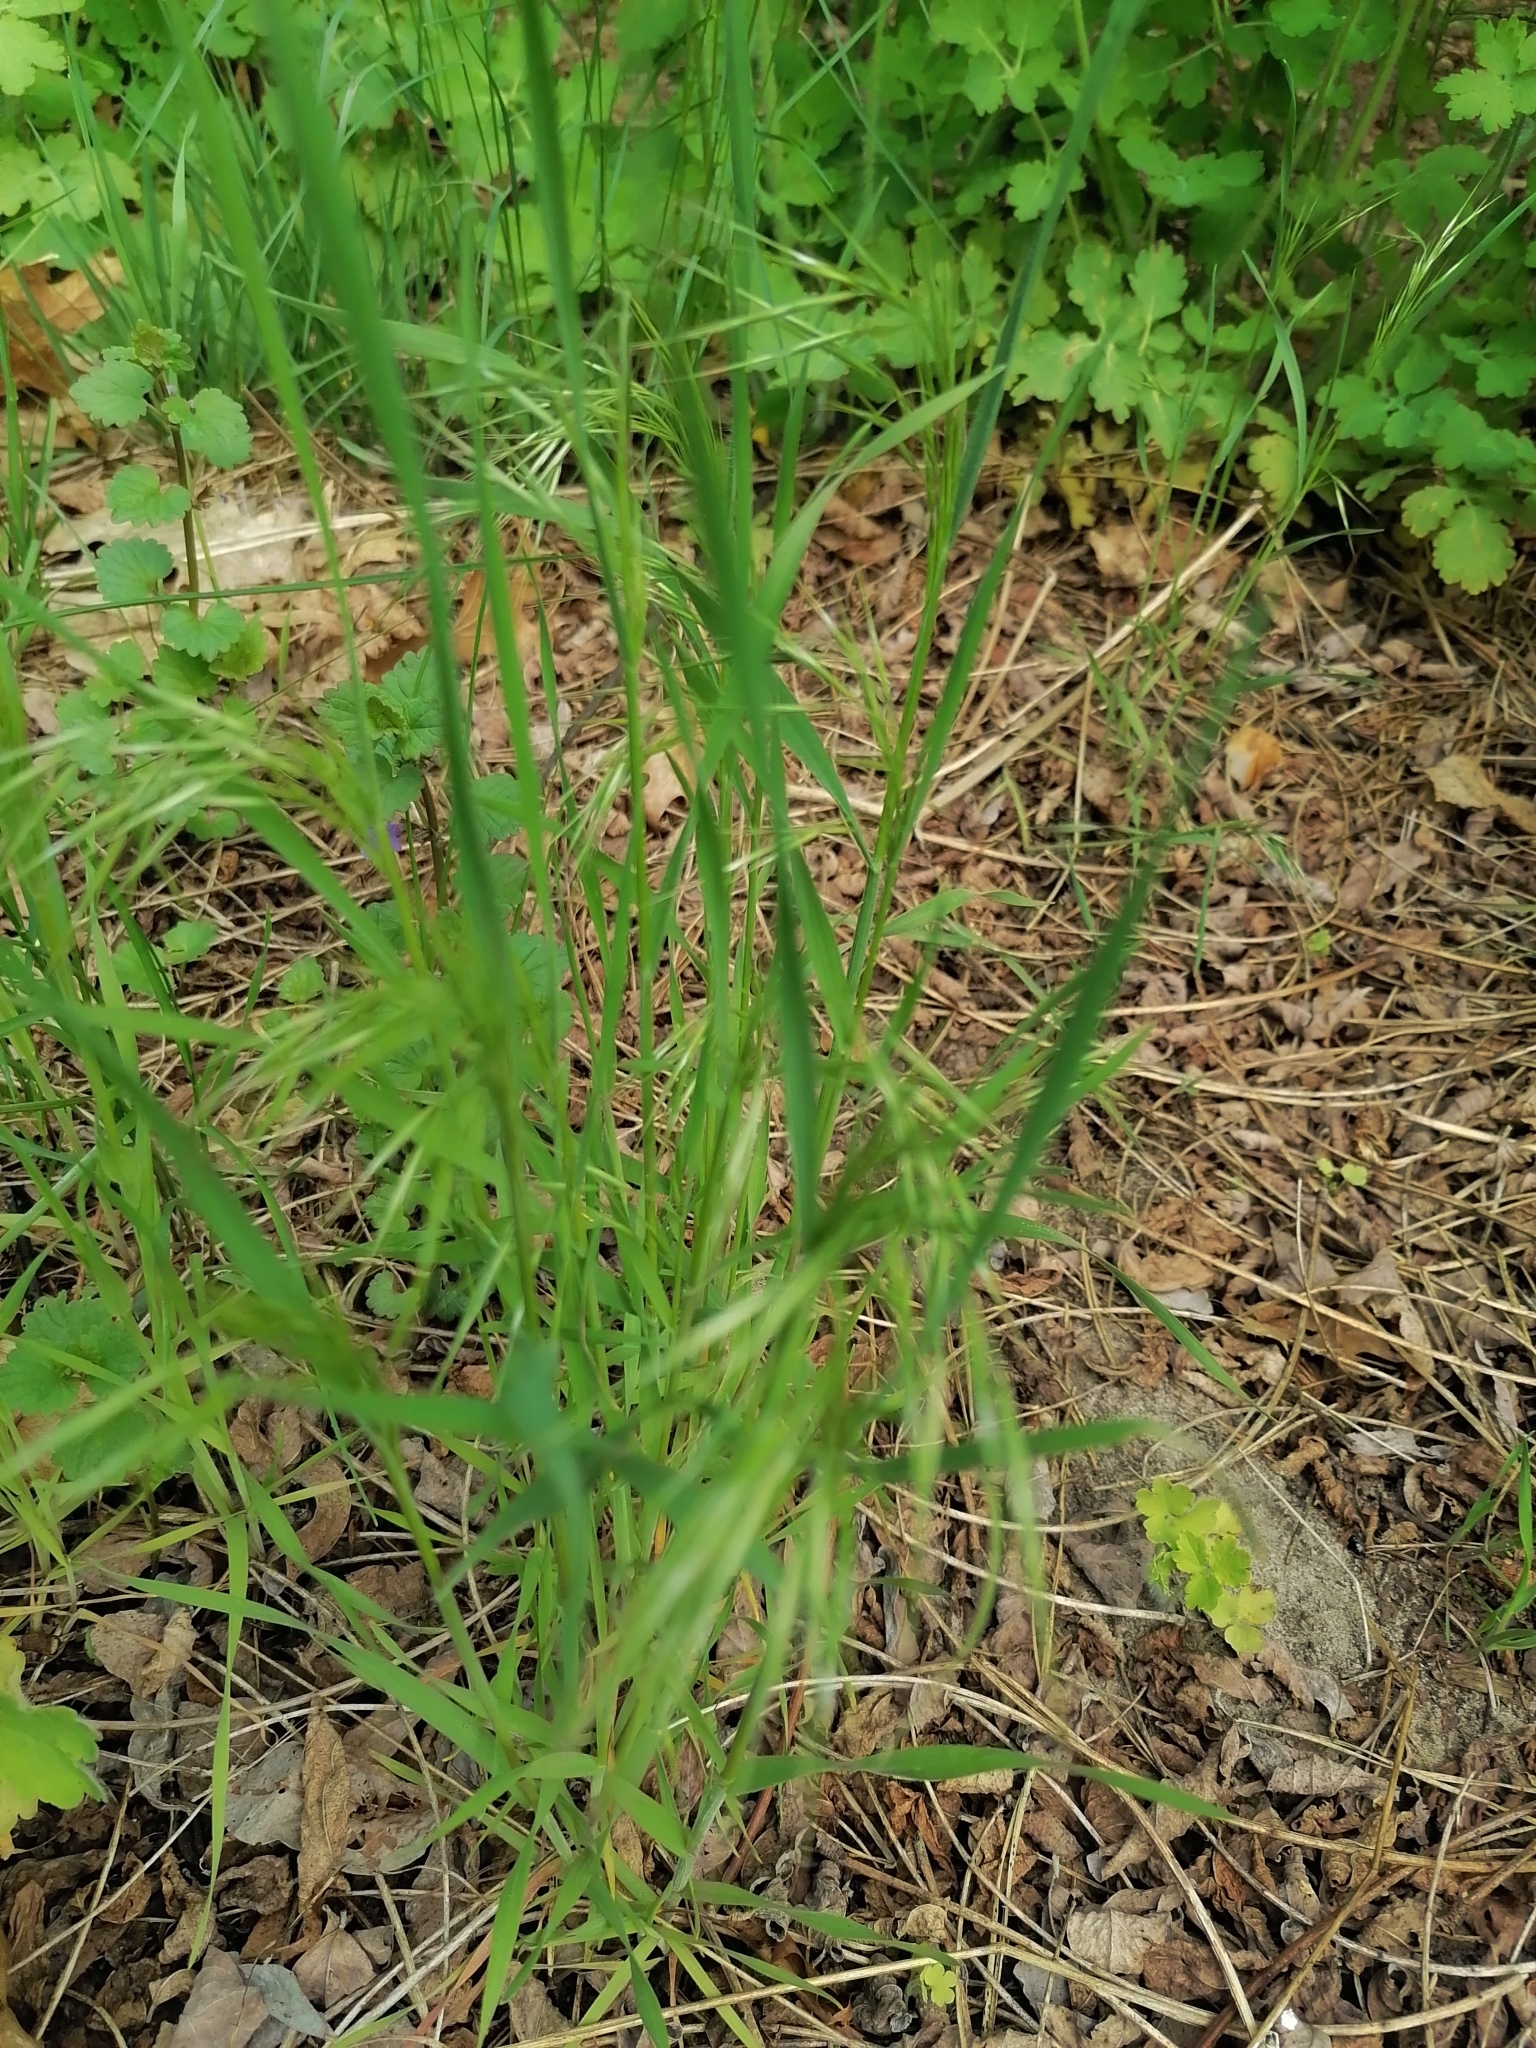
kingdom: Plantae
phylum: Tracheophyta
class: Liliopsida
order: Poales
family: Poaceae
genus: Bromus
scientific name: Bromus tectorum
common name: Cheatgrass
